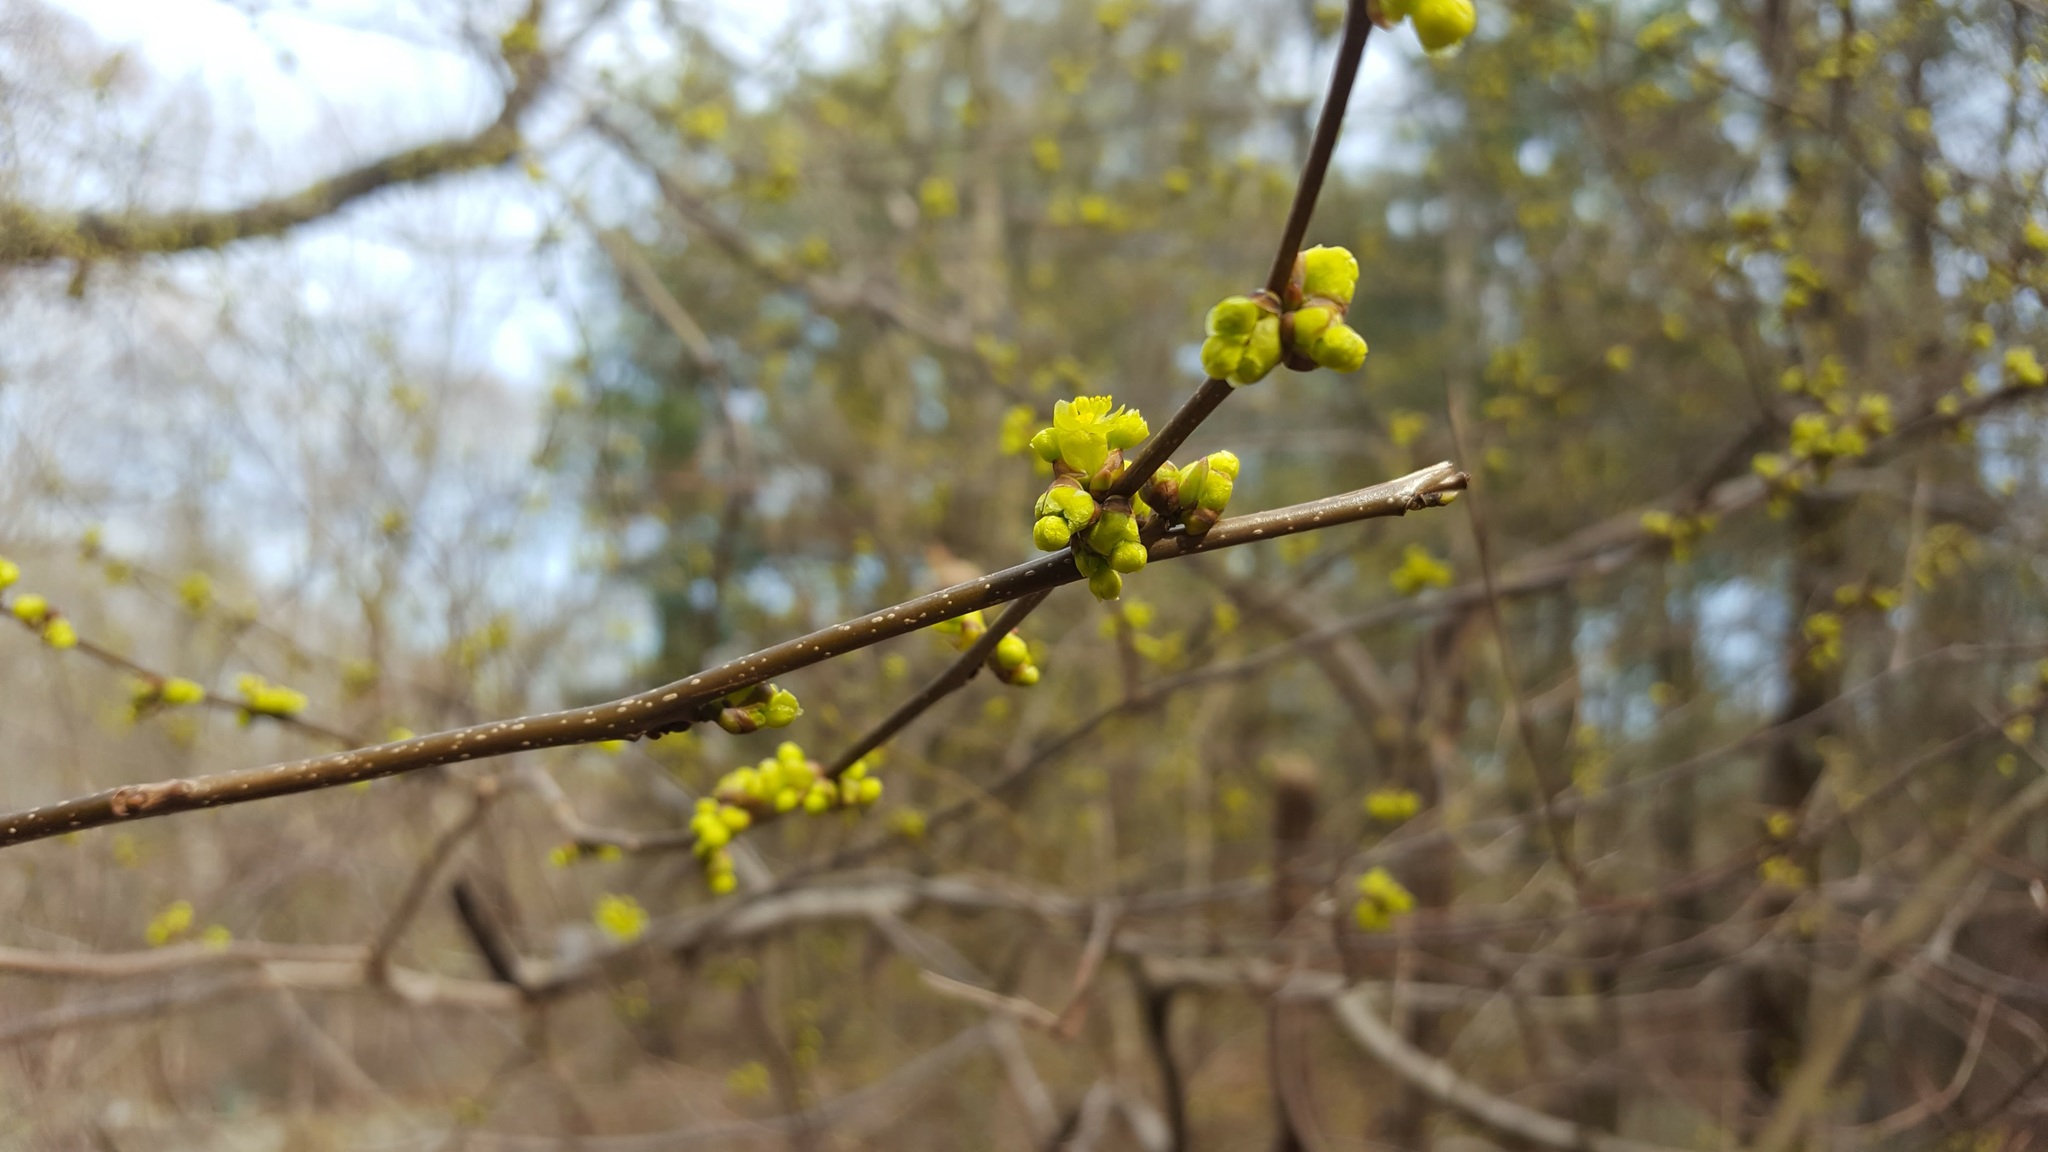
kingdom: Plantae
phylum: Tracheophyta
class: Magnoliopsida
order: Laurales
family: Lauraceae
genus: Lindera
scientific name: Lindera benzoin
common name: Spicebush
